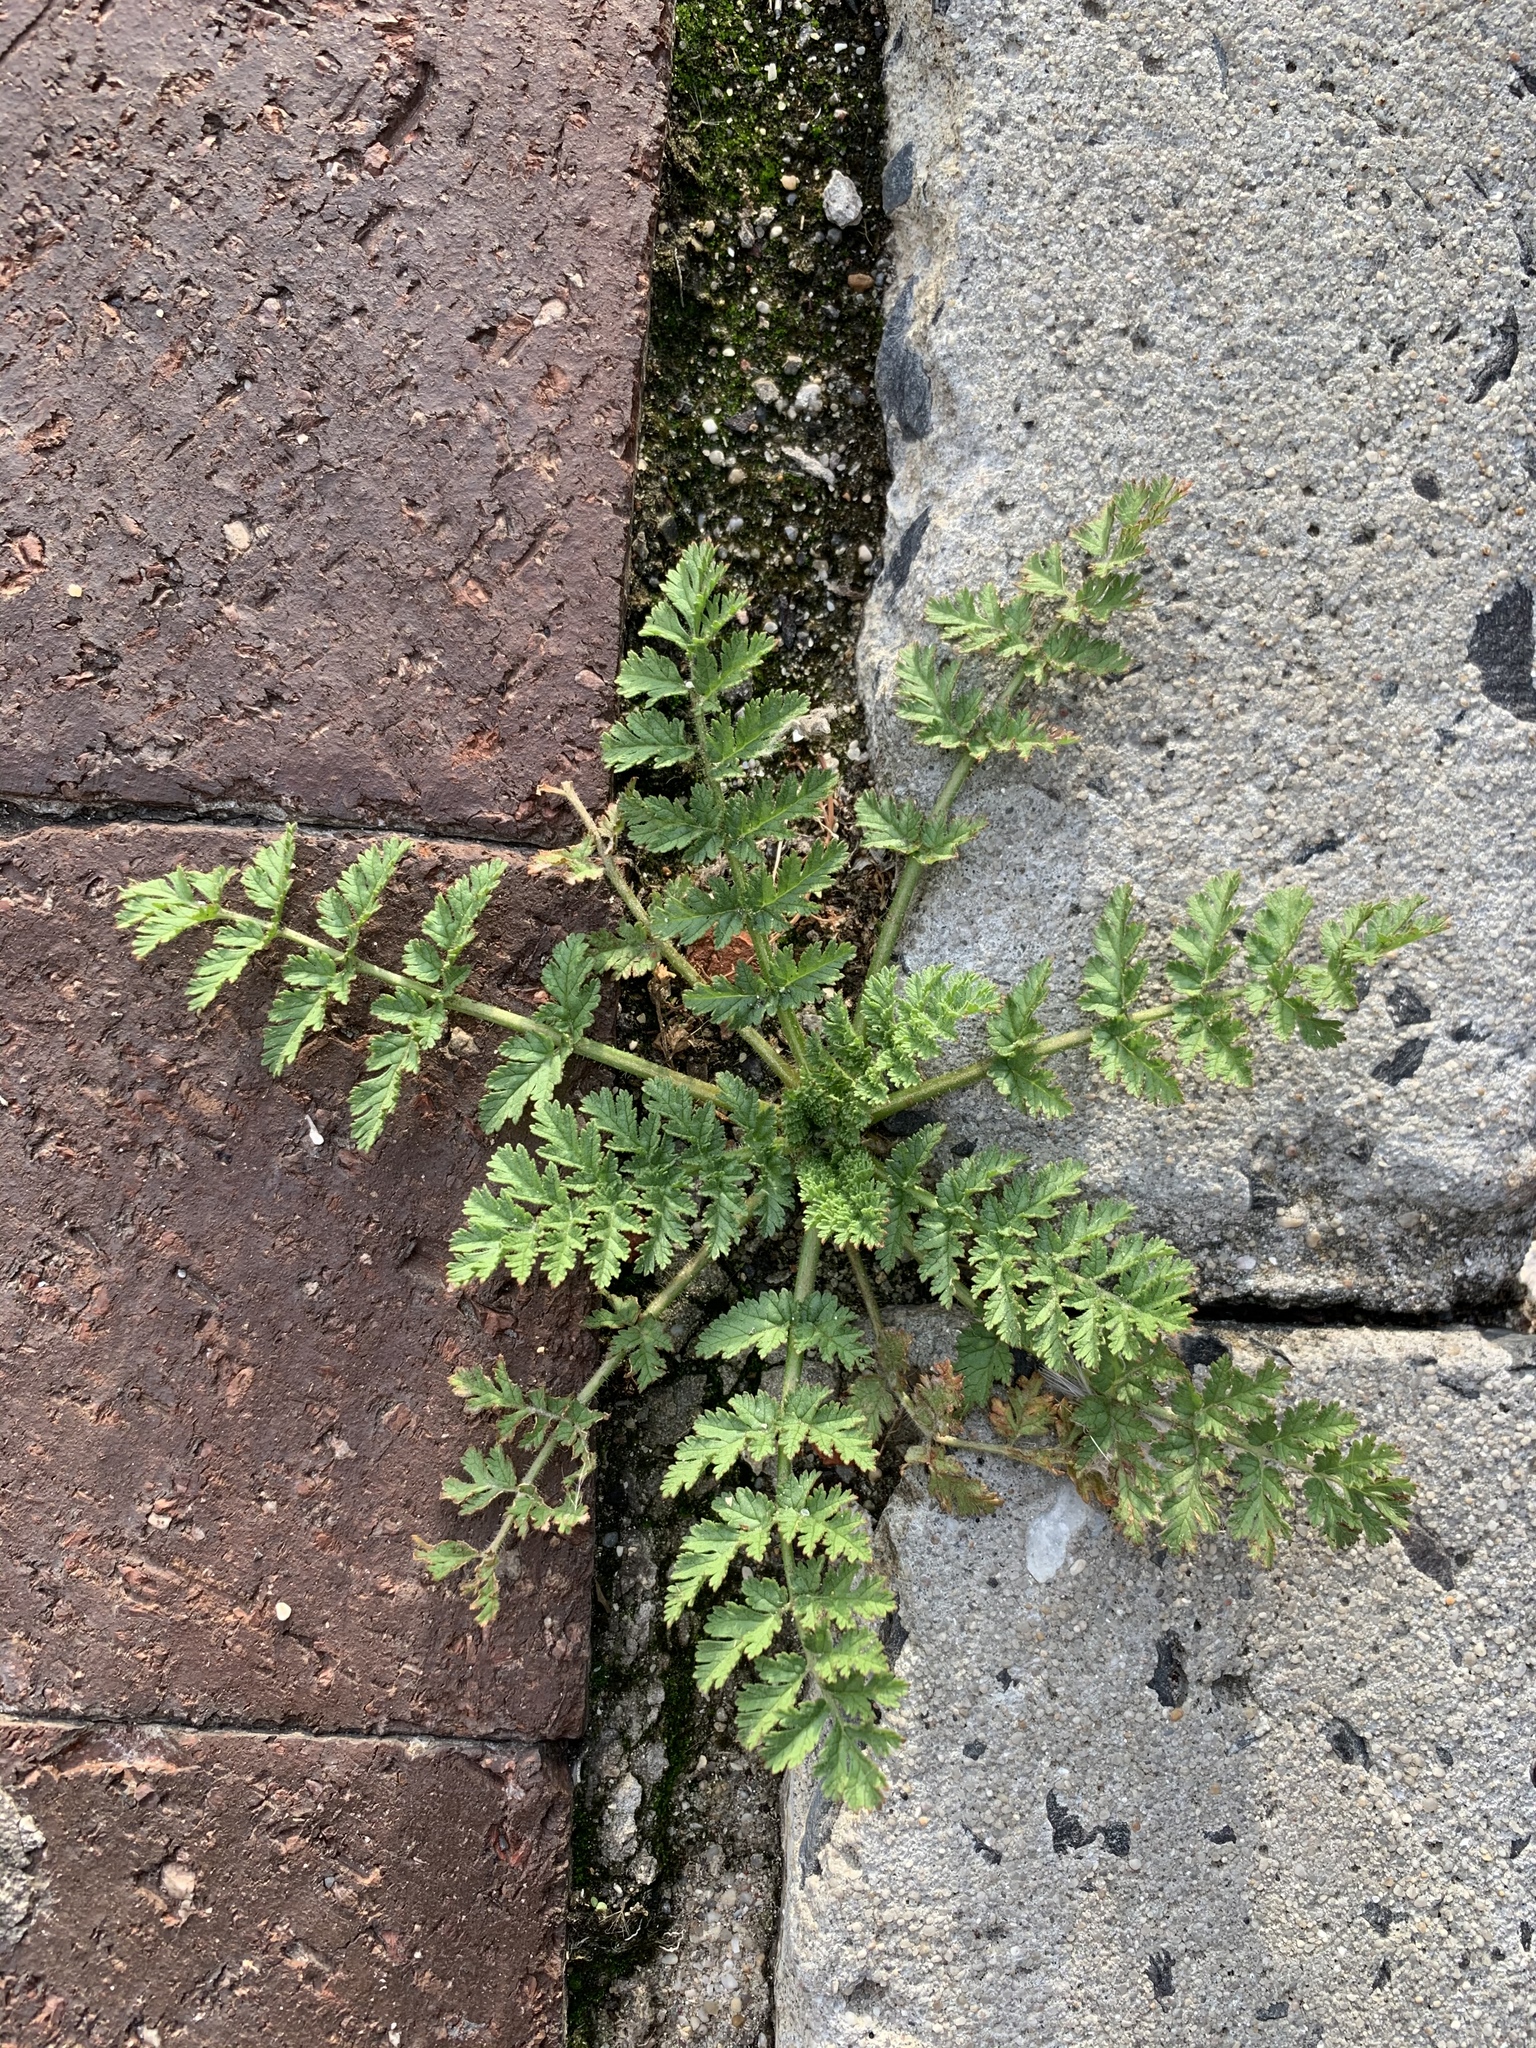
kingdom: Plantae
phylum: Tracheophyta
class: Magnoliopsida
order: Geraniales
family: Geraniaceae
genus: Erodium
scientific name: Erodium cicutarium
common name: Common stork's-bill
